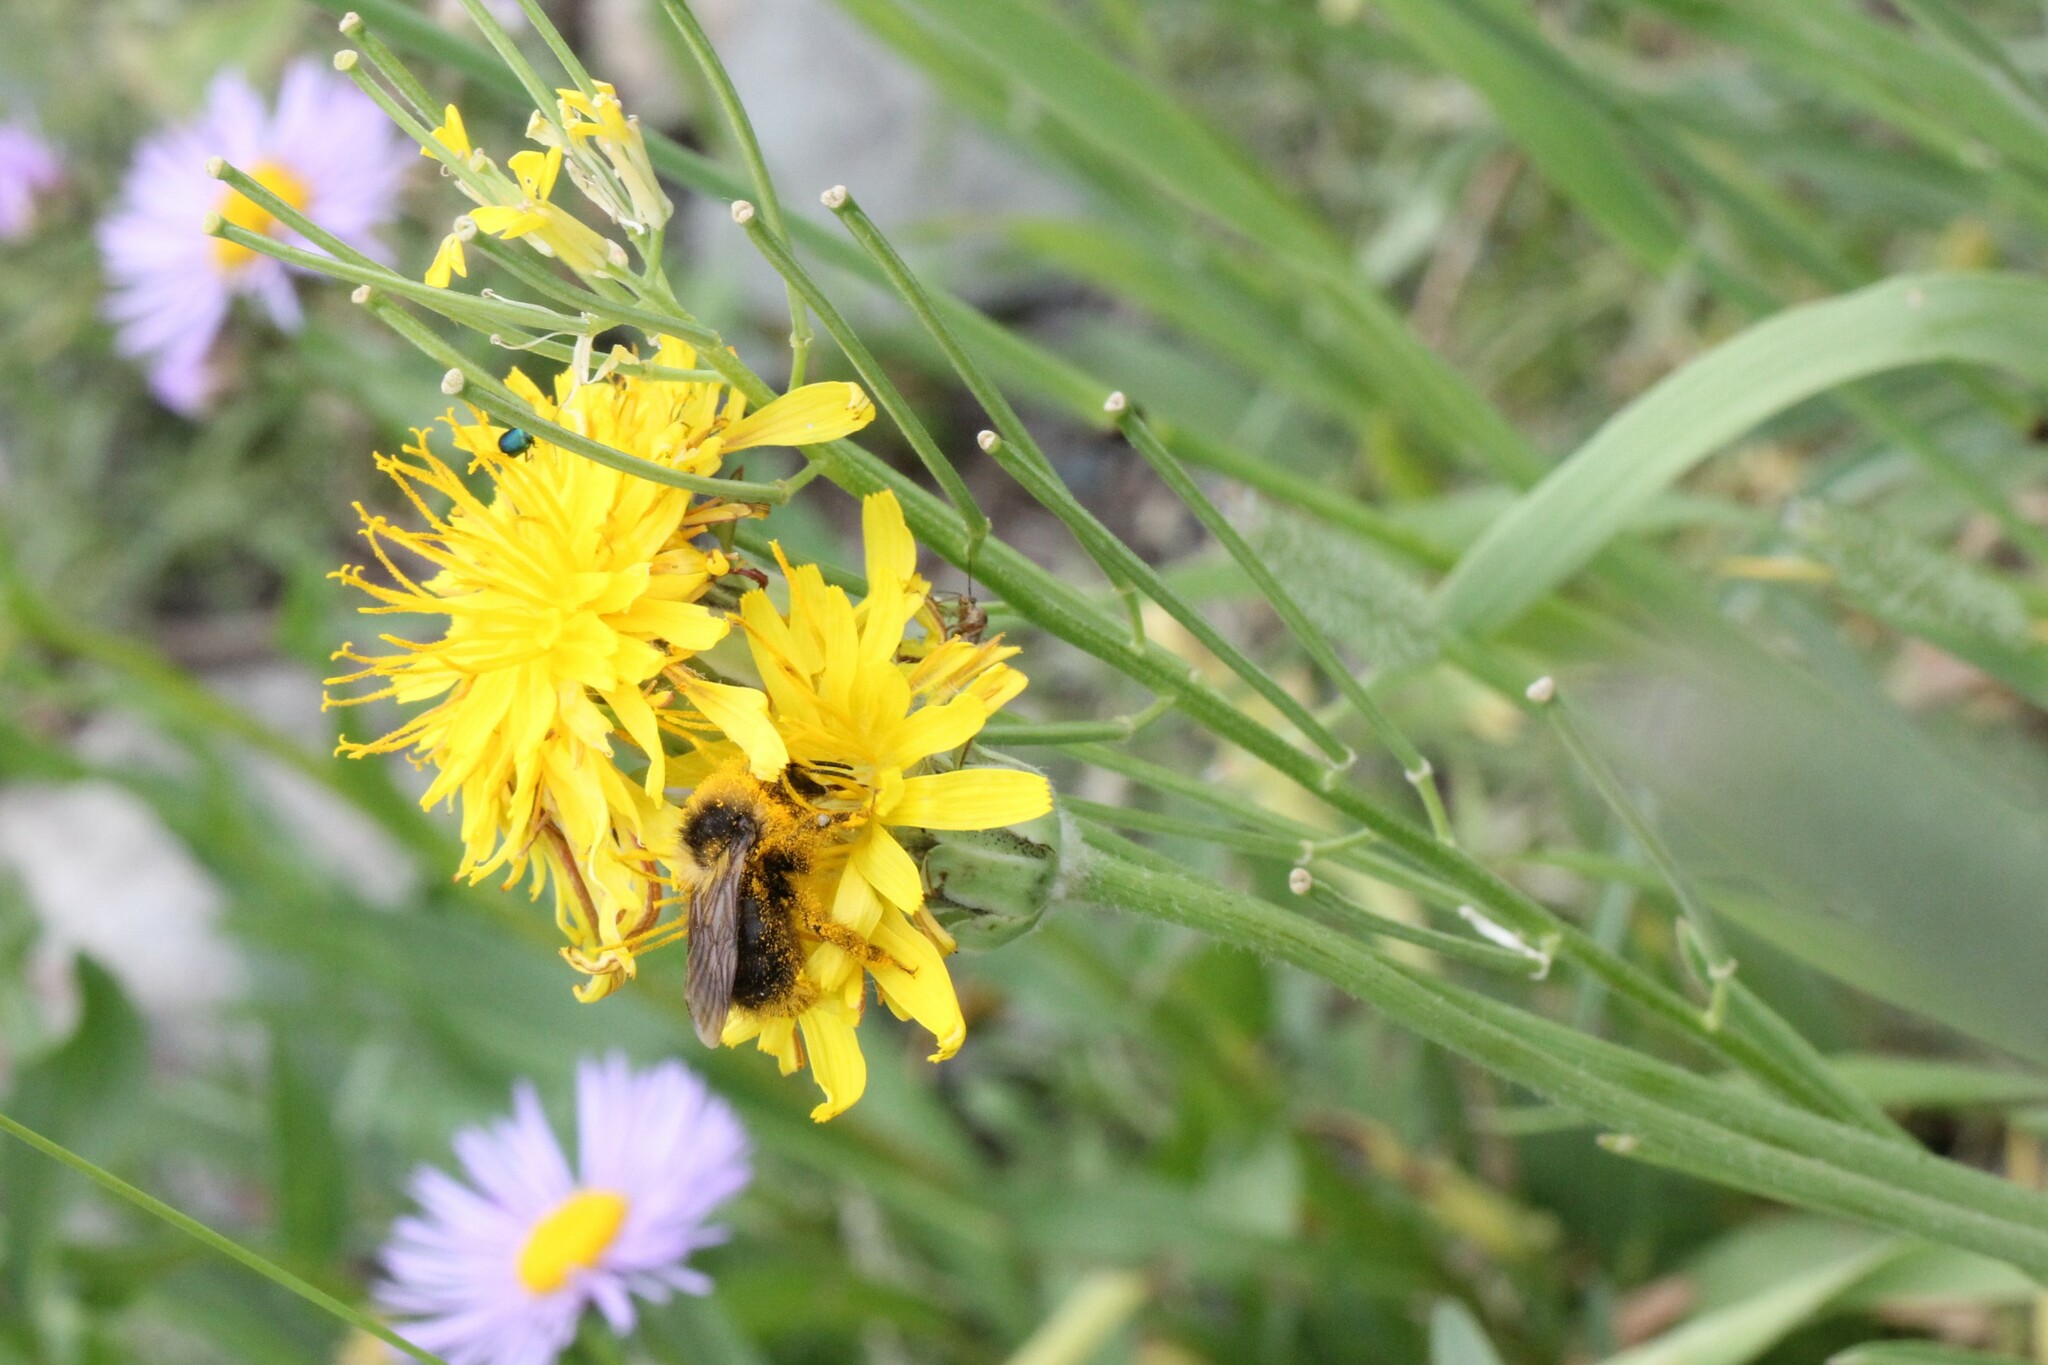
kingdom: Animalia
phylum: Arthropoda
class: Insecta
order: Hymenoptera
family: Apidae
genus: Bombus
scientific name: Bombus
